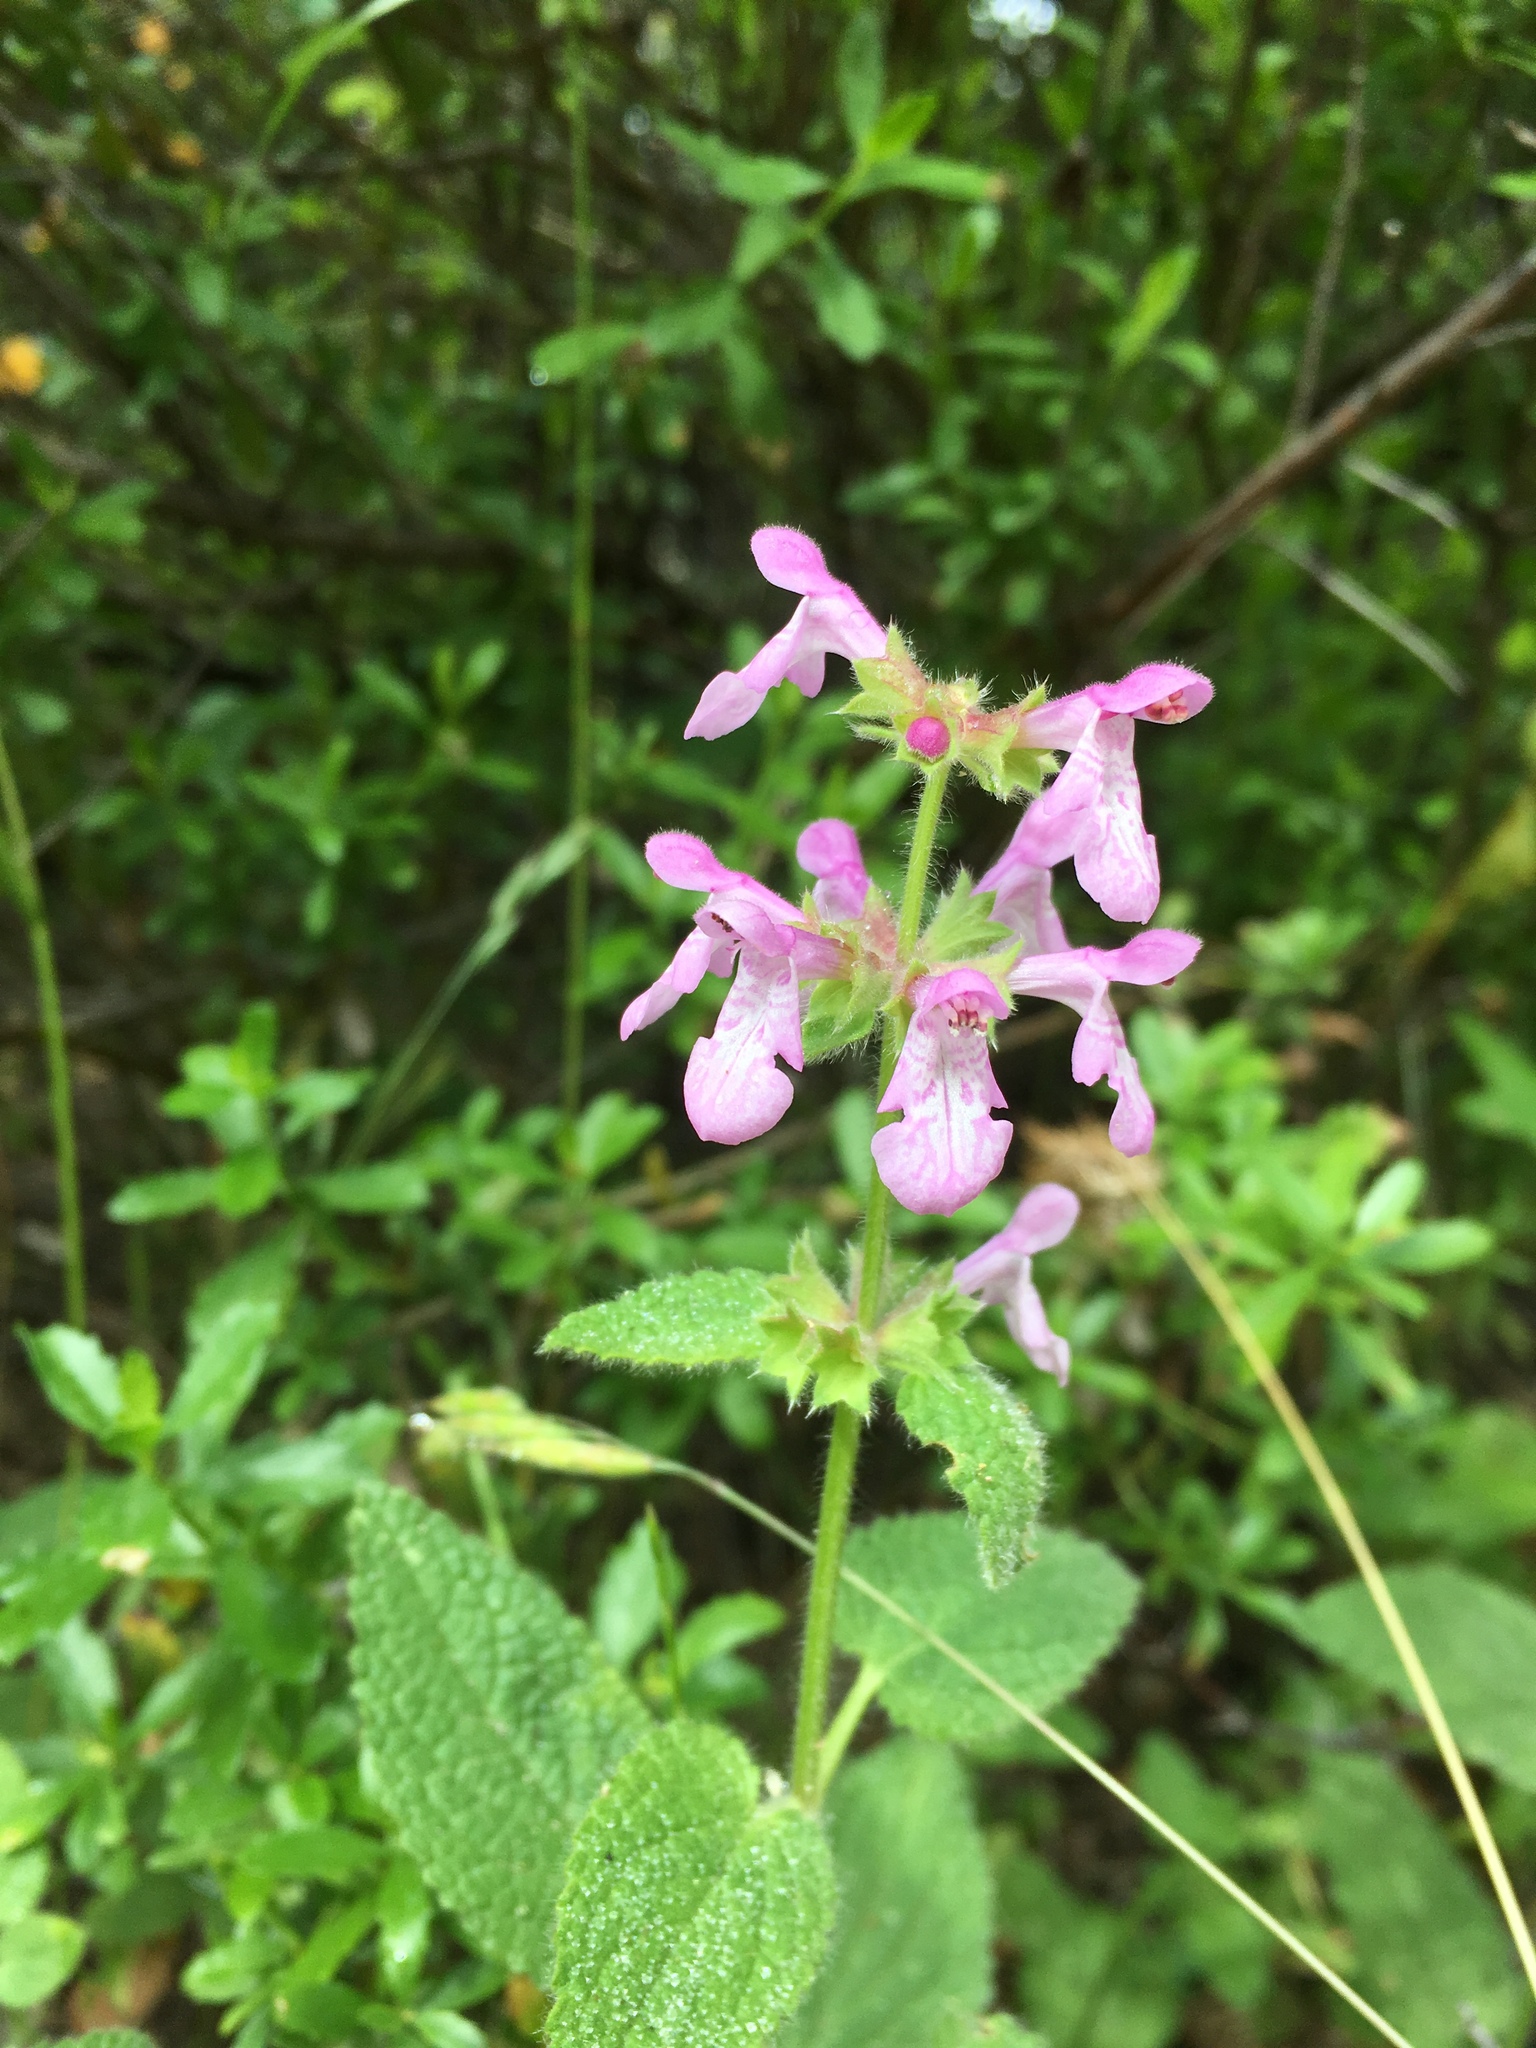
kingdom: Plantae
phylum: Tracheophyta
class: Magnoliopsida
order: Lamiales
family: Lamiaceae
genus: Stachys
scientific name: Stachys bullata
